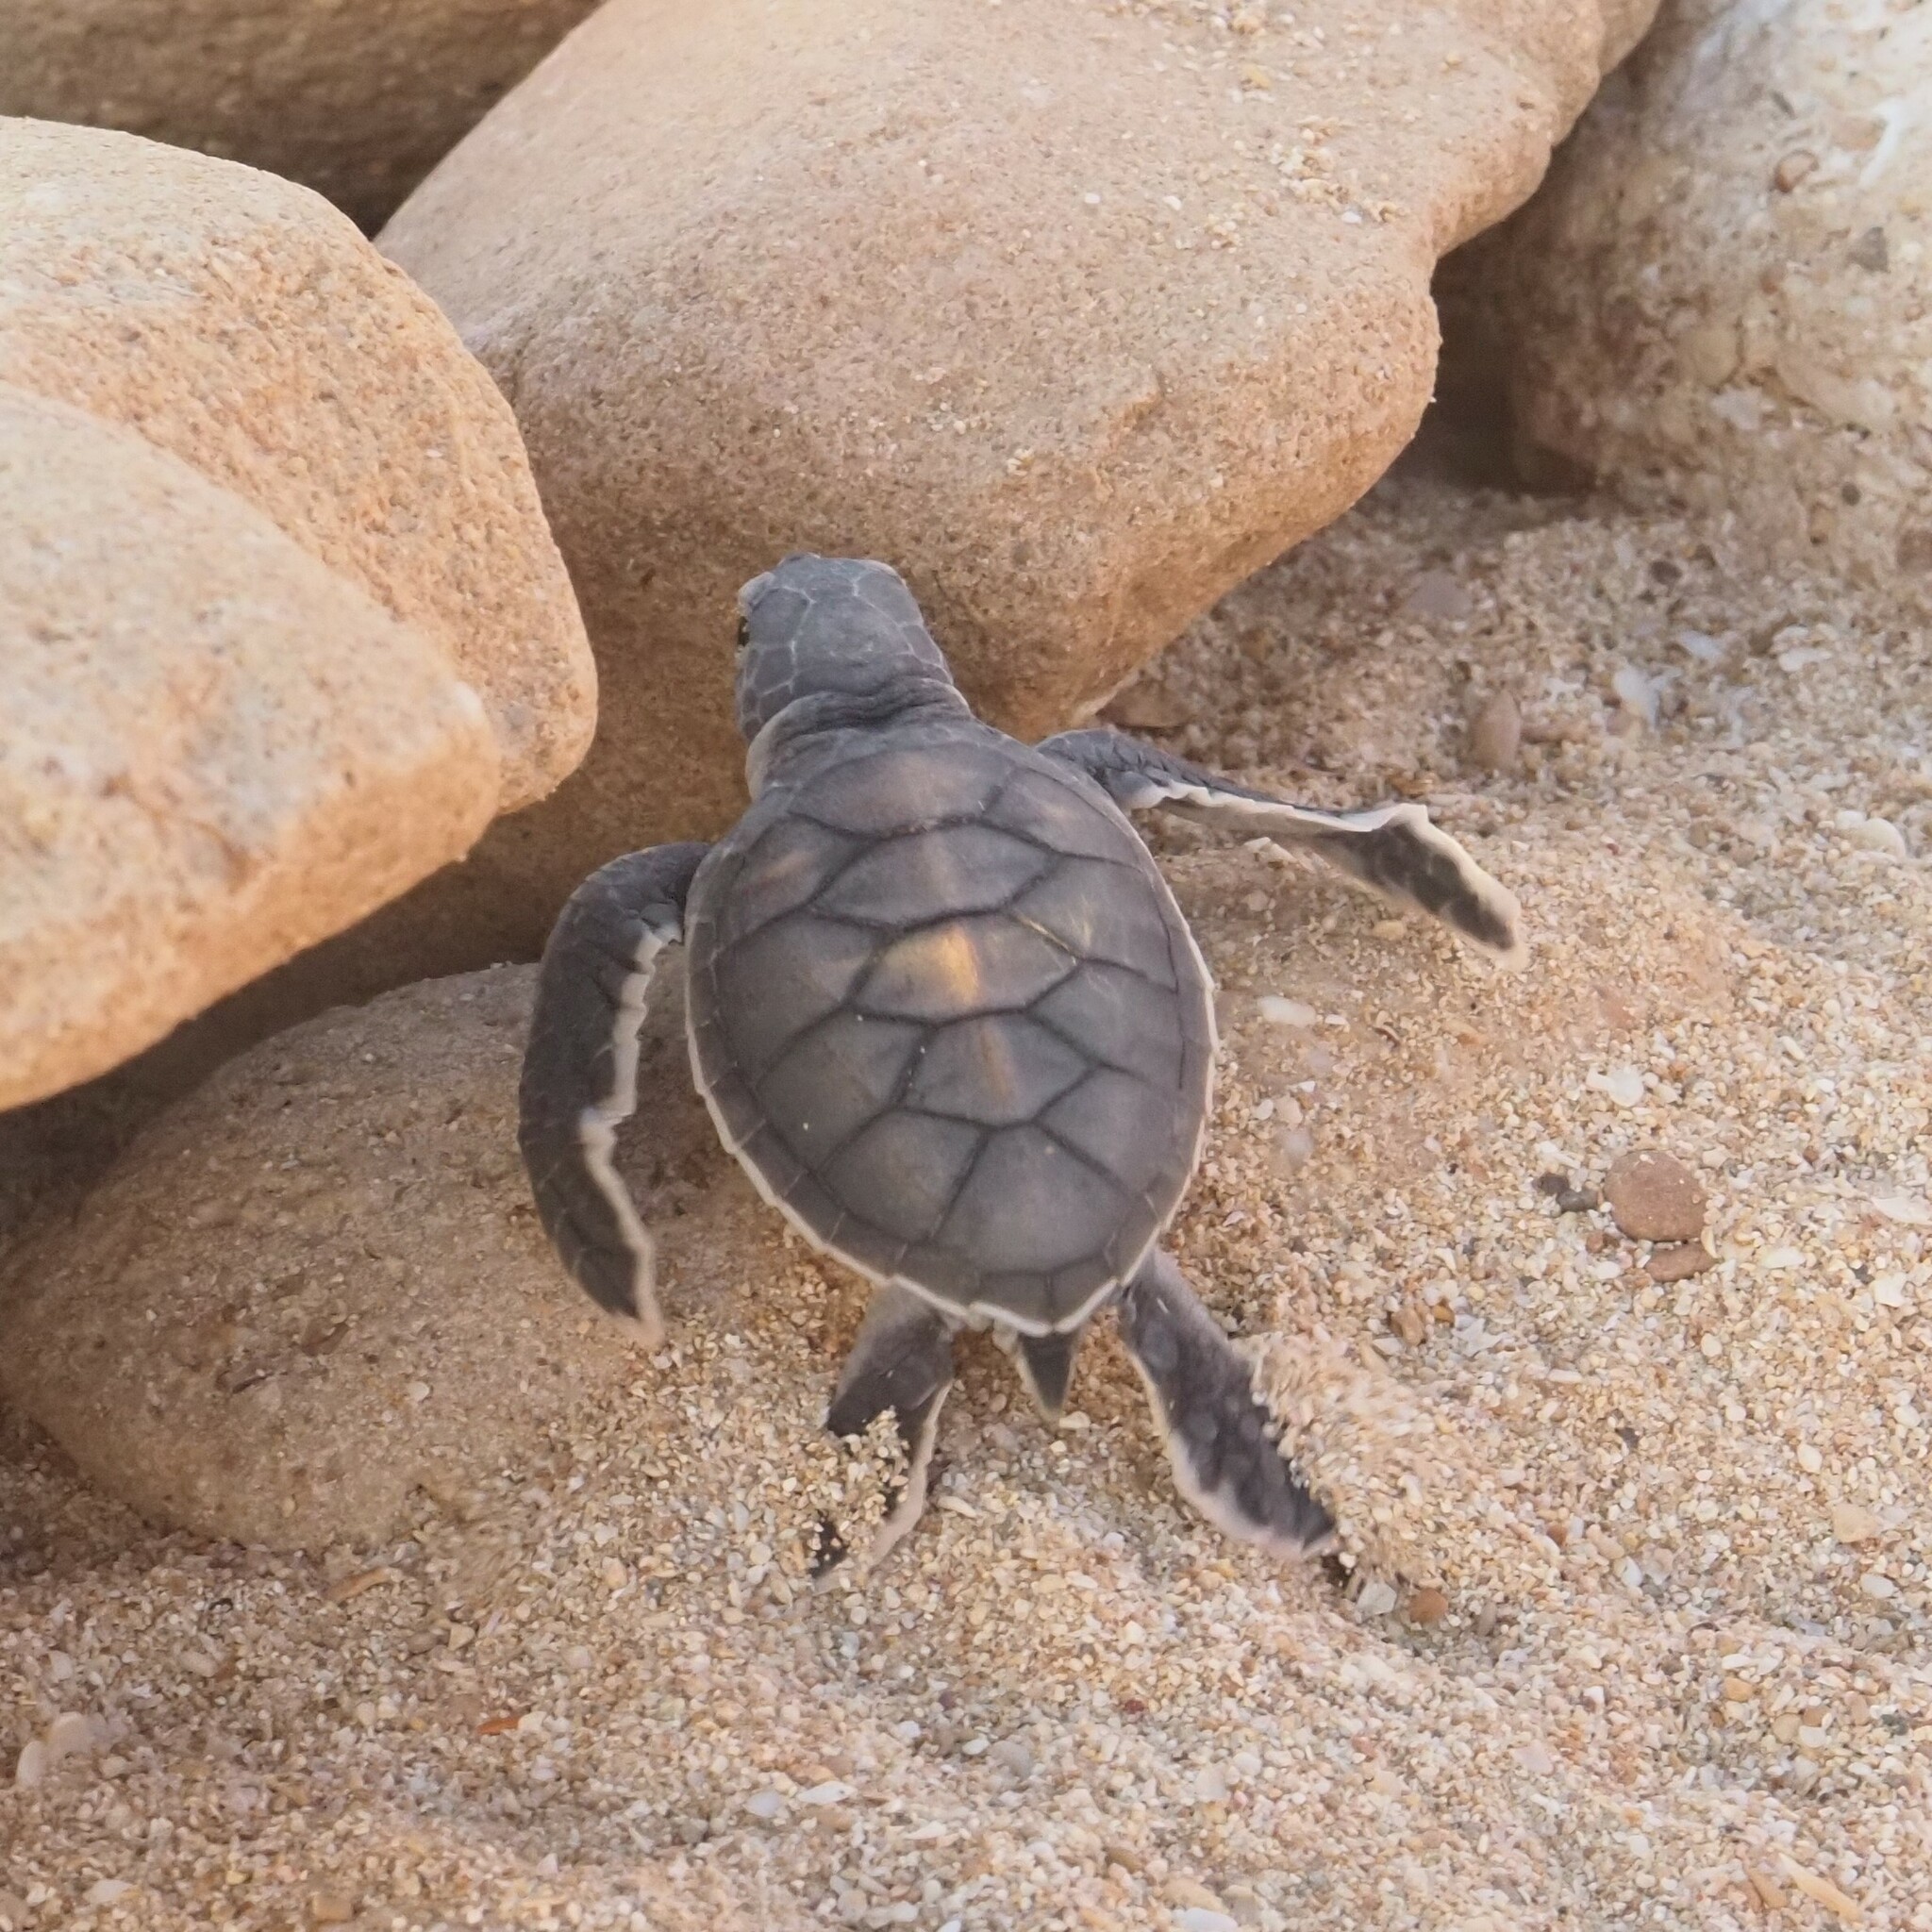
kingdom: Animalia
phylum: Chordata
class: Testudines
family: Cheloniidae
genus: Chelonia
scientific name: Chelonia mydas
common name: Green turtle
